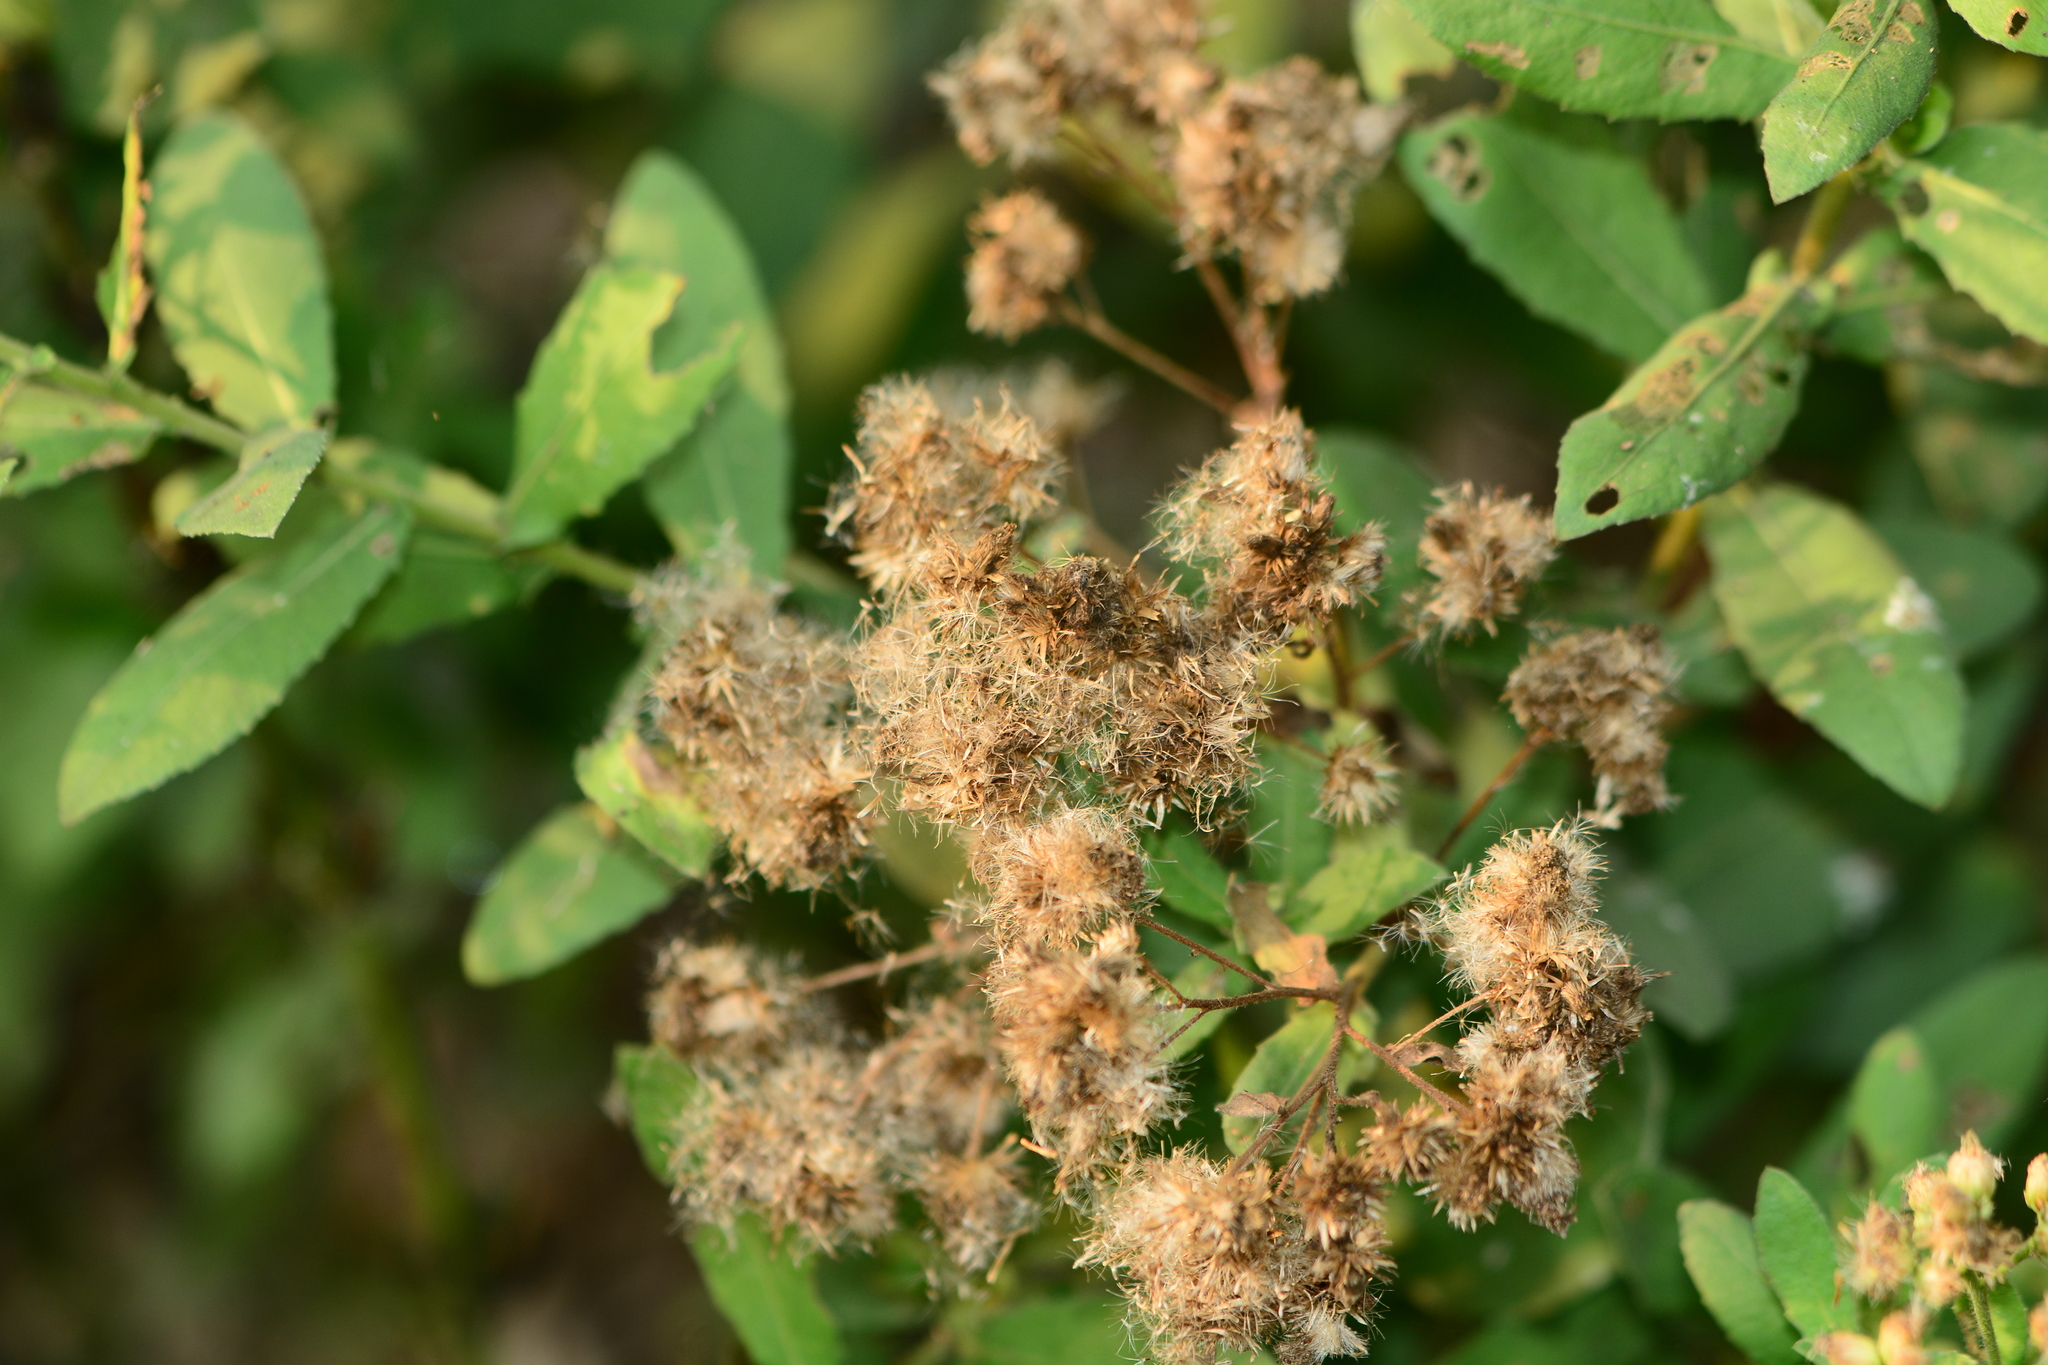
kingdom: Plantae
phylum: Tracheophyta
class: Magnoliopsida
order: Asterales
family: Asteraceae
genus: Pluchea
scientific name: Pluchea ovalis
